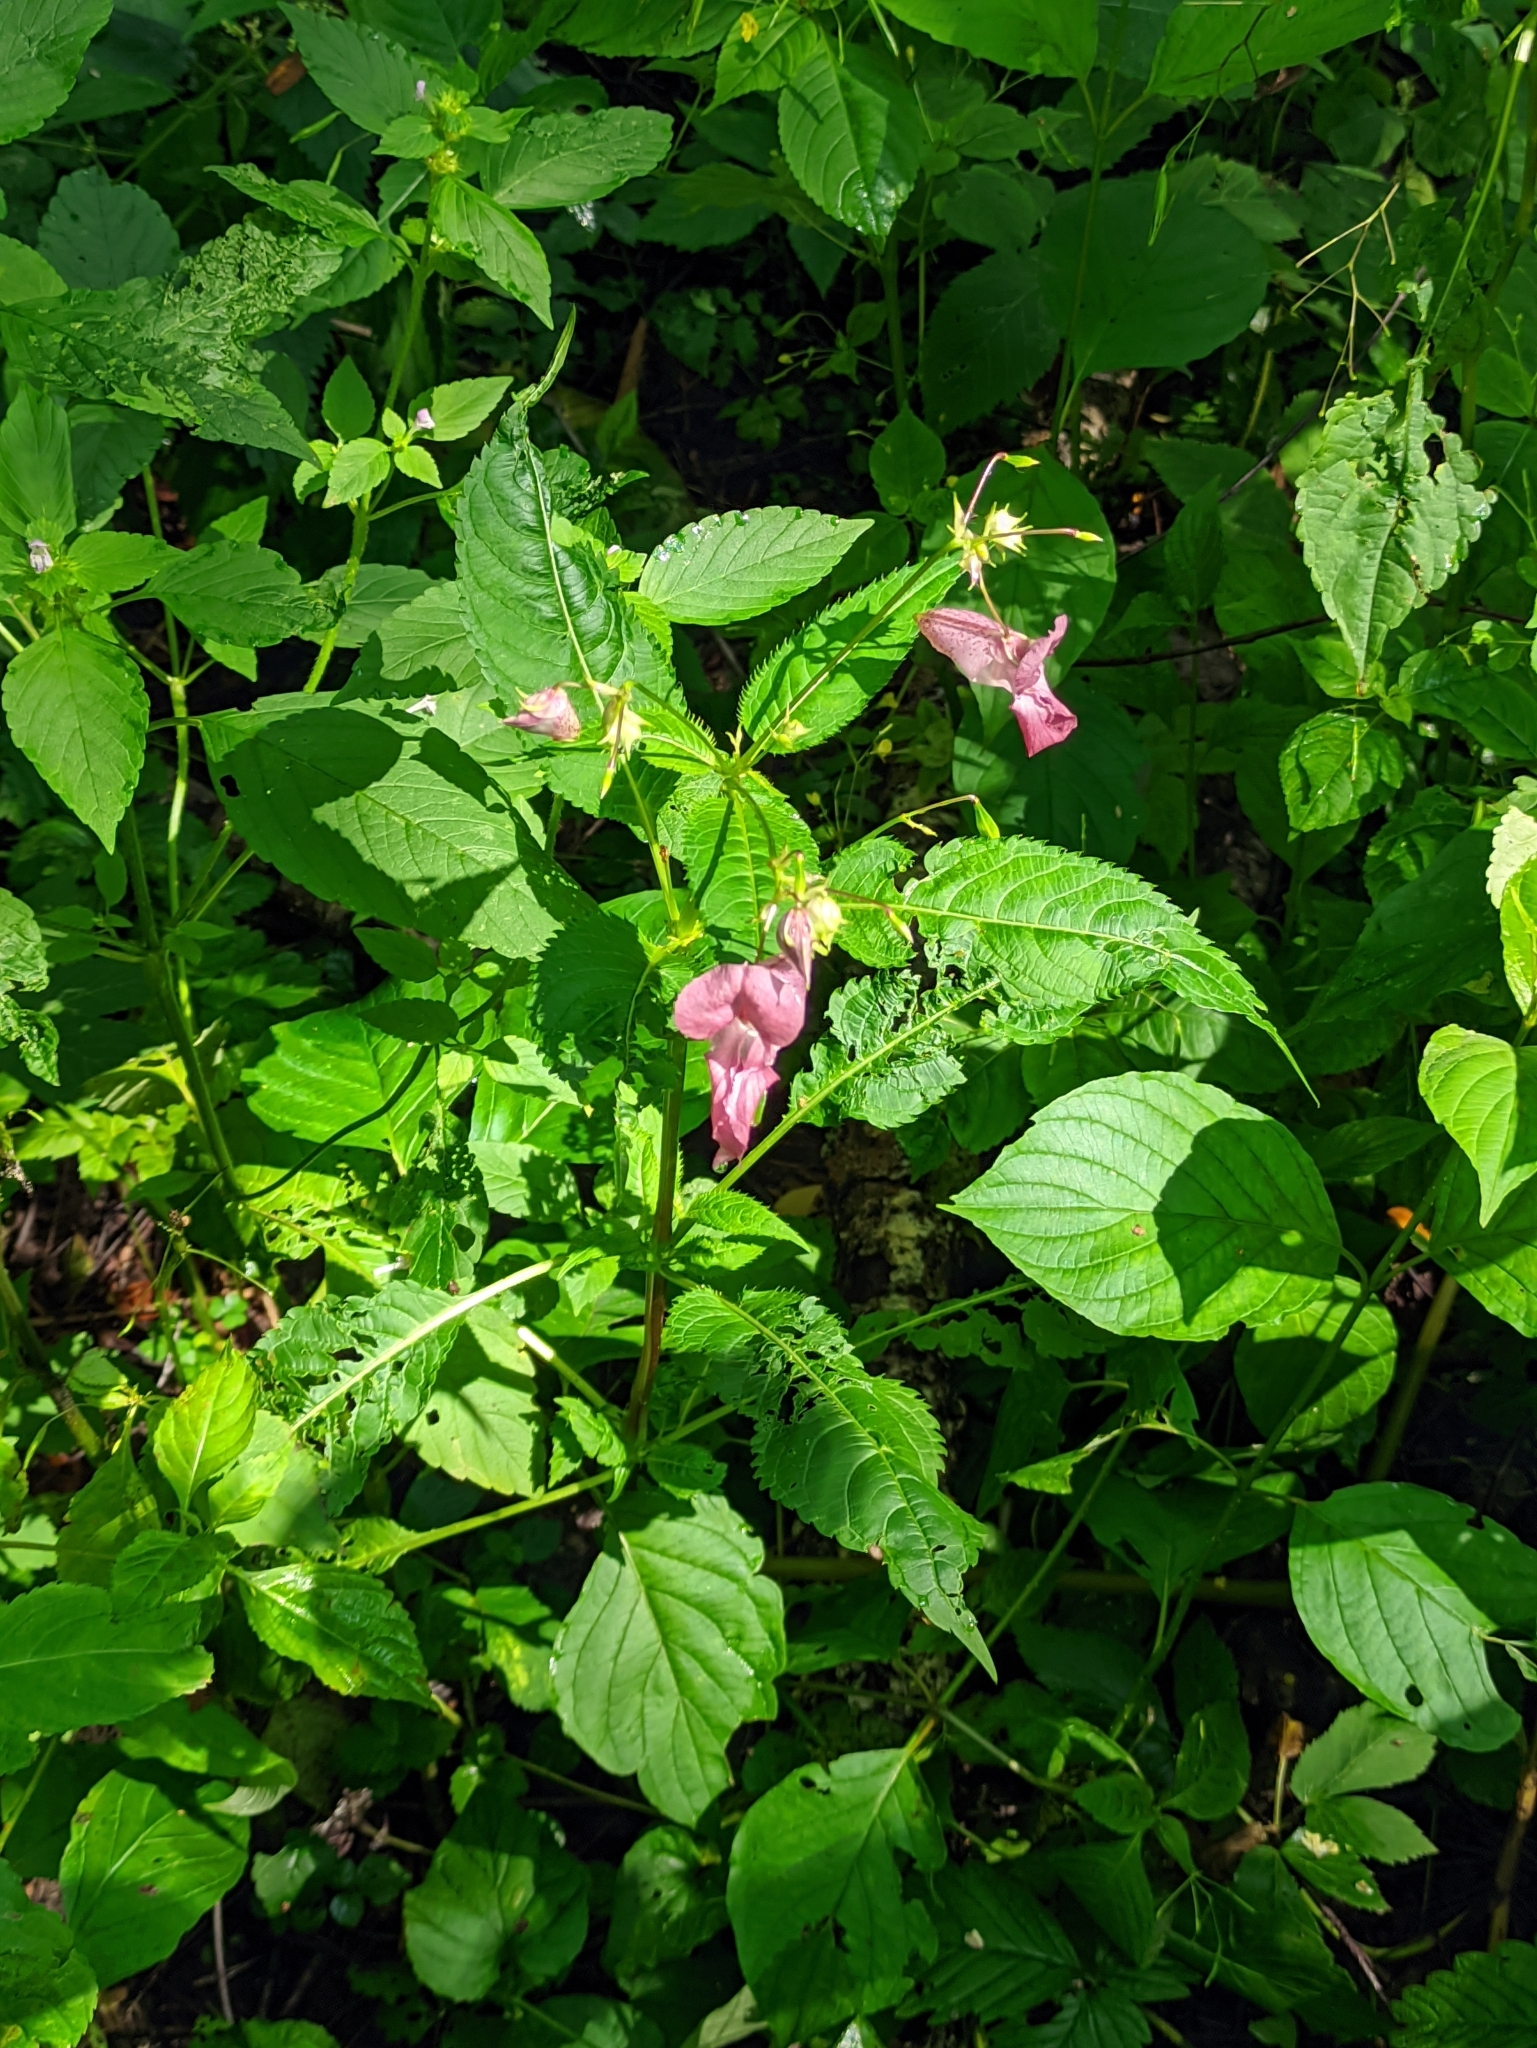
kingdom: Plantae
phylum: Tracheophyta
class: Magnoliopsida
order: Ericales
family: Balsaminaceae
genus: Impatiens
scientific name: Impatiens glandulifera
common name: Himalayan balsam
